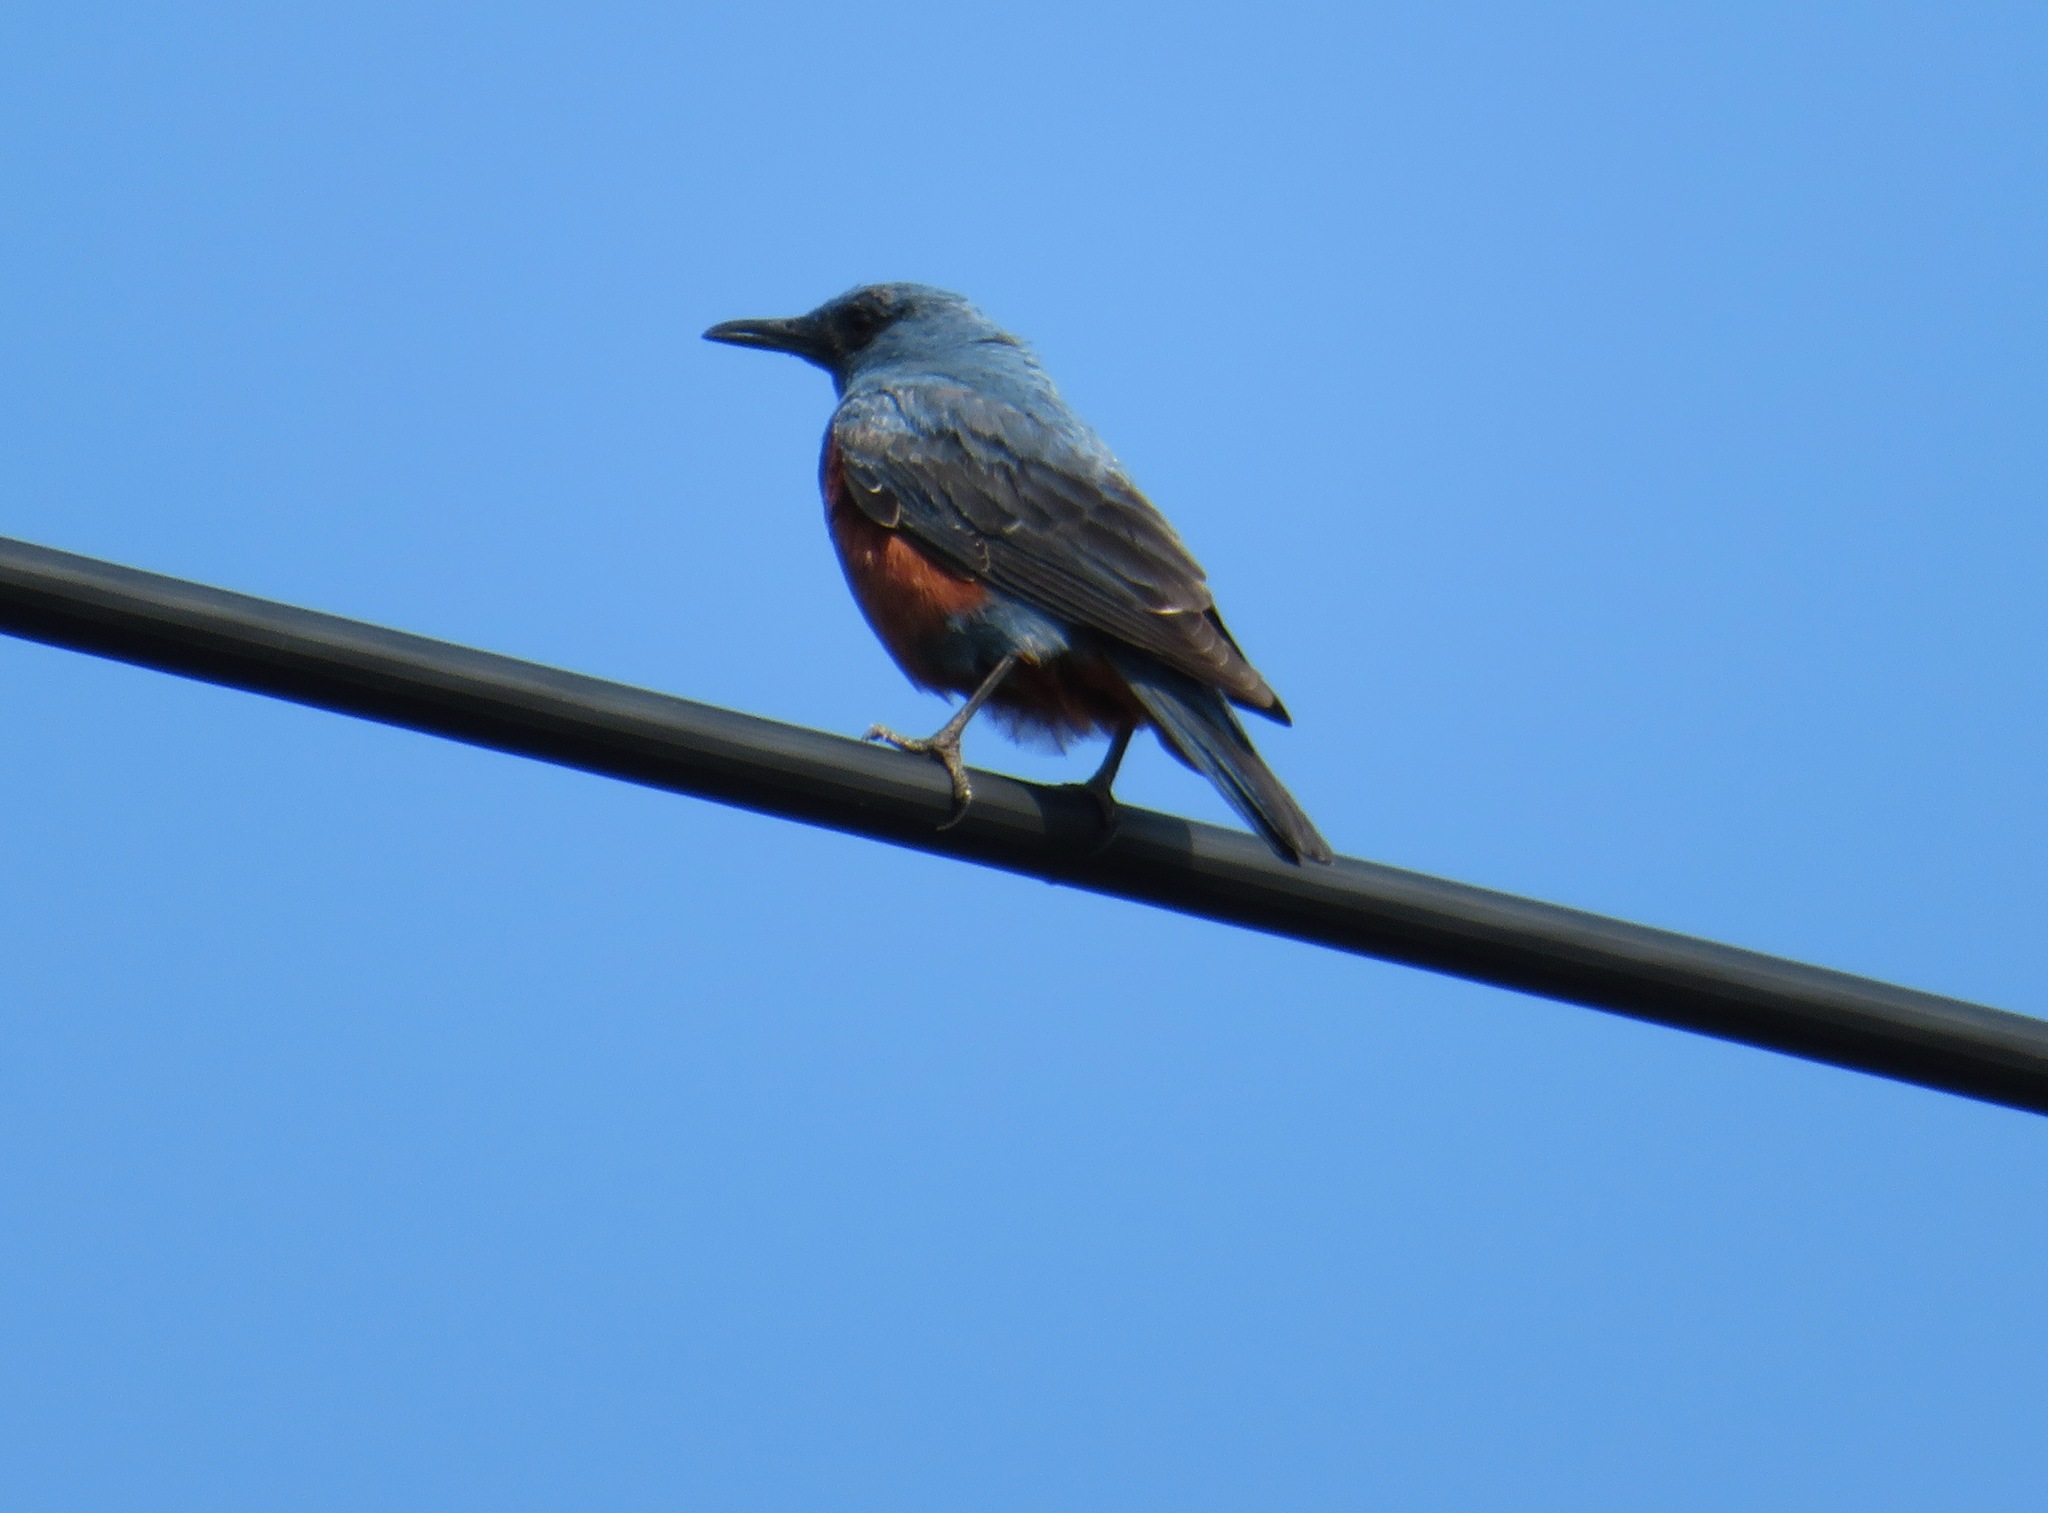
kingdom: Animalia
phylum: Chordata
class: Aves
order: Passeriformes
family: Muscicapidae
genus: Monticola
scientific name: Monticola solitarius
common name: Blue rock thrush
